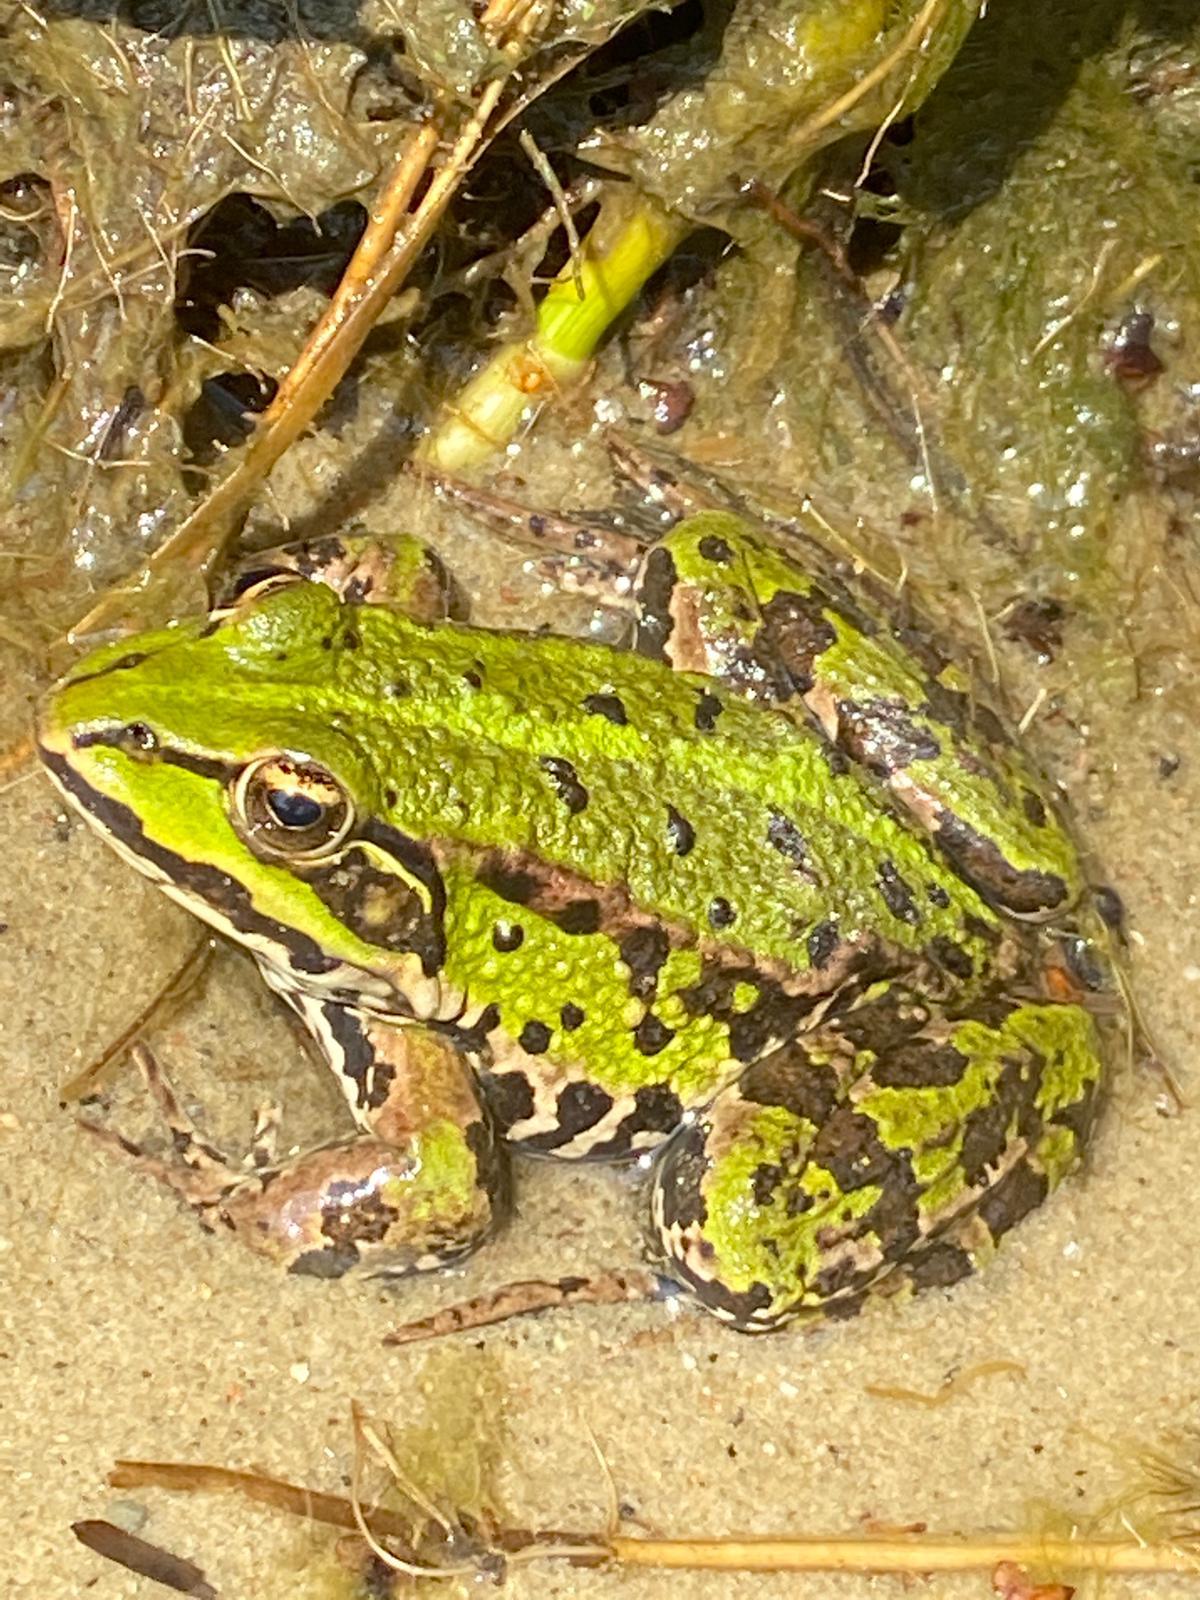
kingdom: Animalia
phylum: Chordata
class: Amphibia
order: Anura
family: Ranidae
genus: Pelophylax
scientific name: Pelophylax
